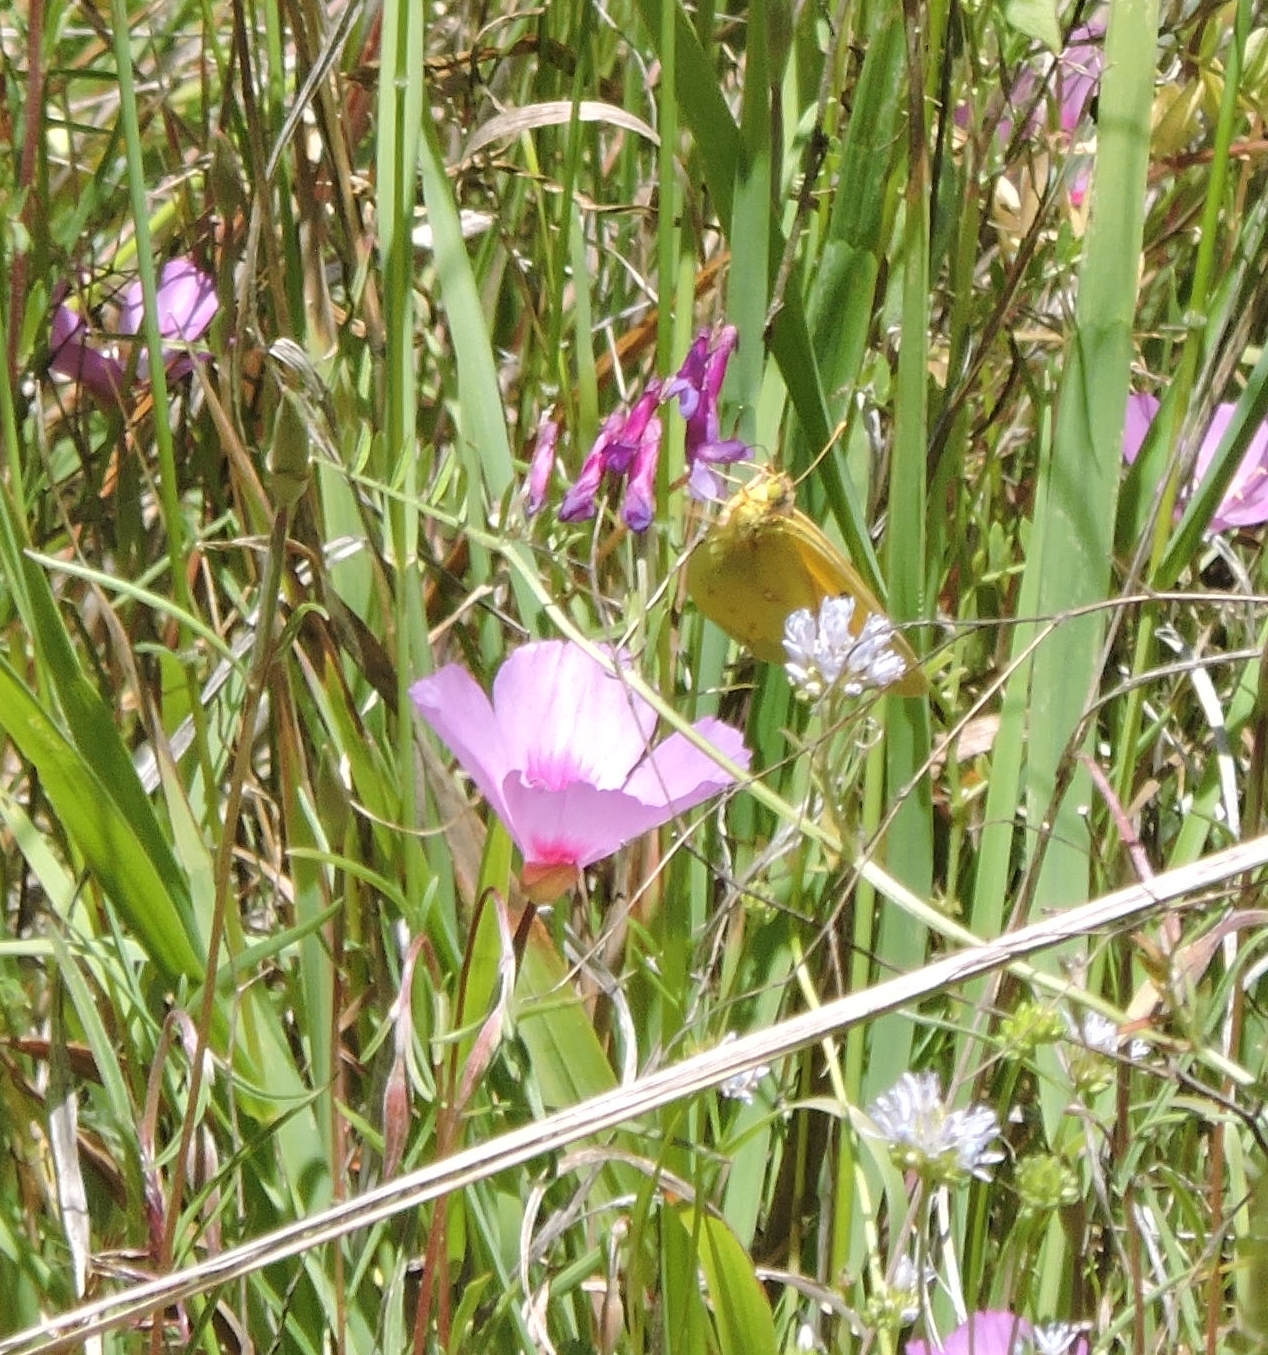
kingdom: Animalia
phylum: Arthropoda
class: Insecta
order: Lepidoptera
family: Pieridae
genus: Colias
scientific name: Colias eurytheme
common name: Alfalfa butterfly
